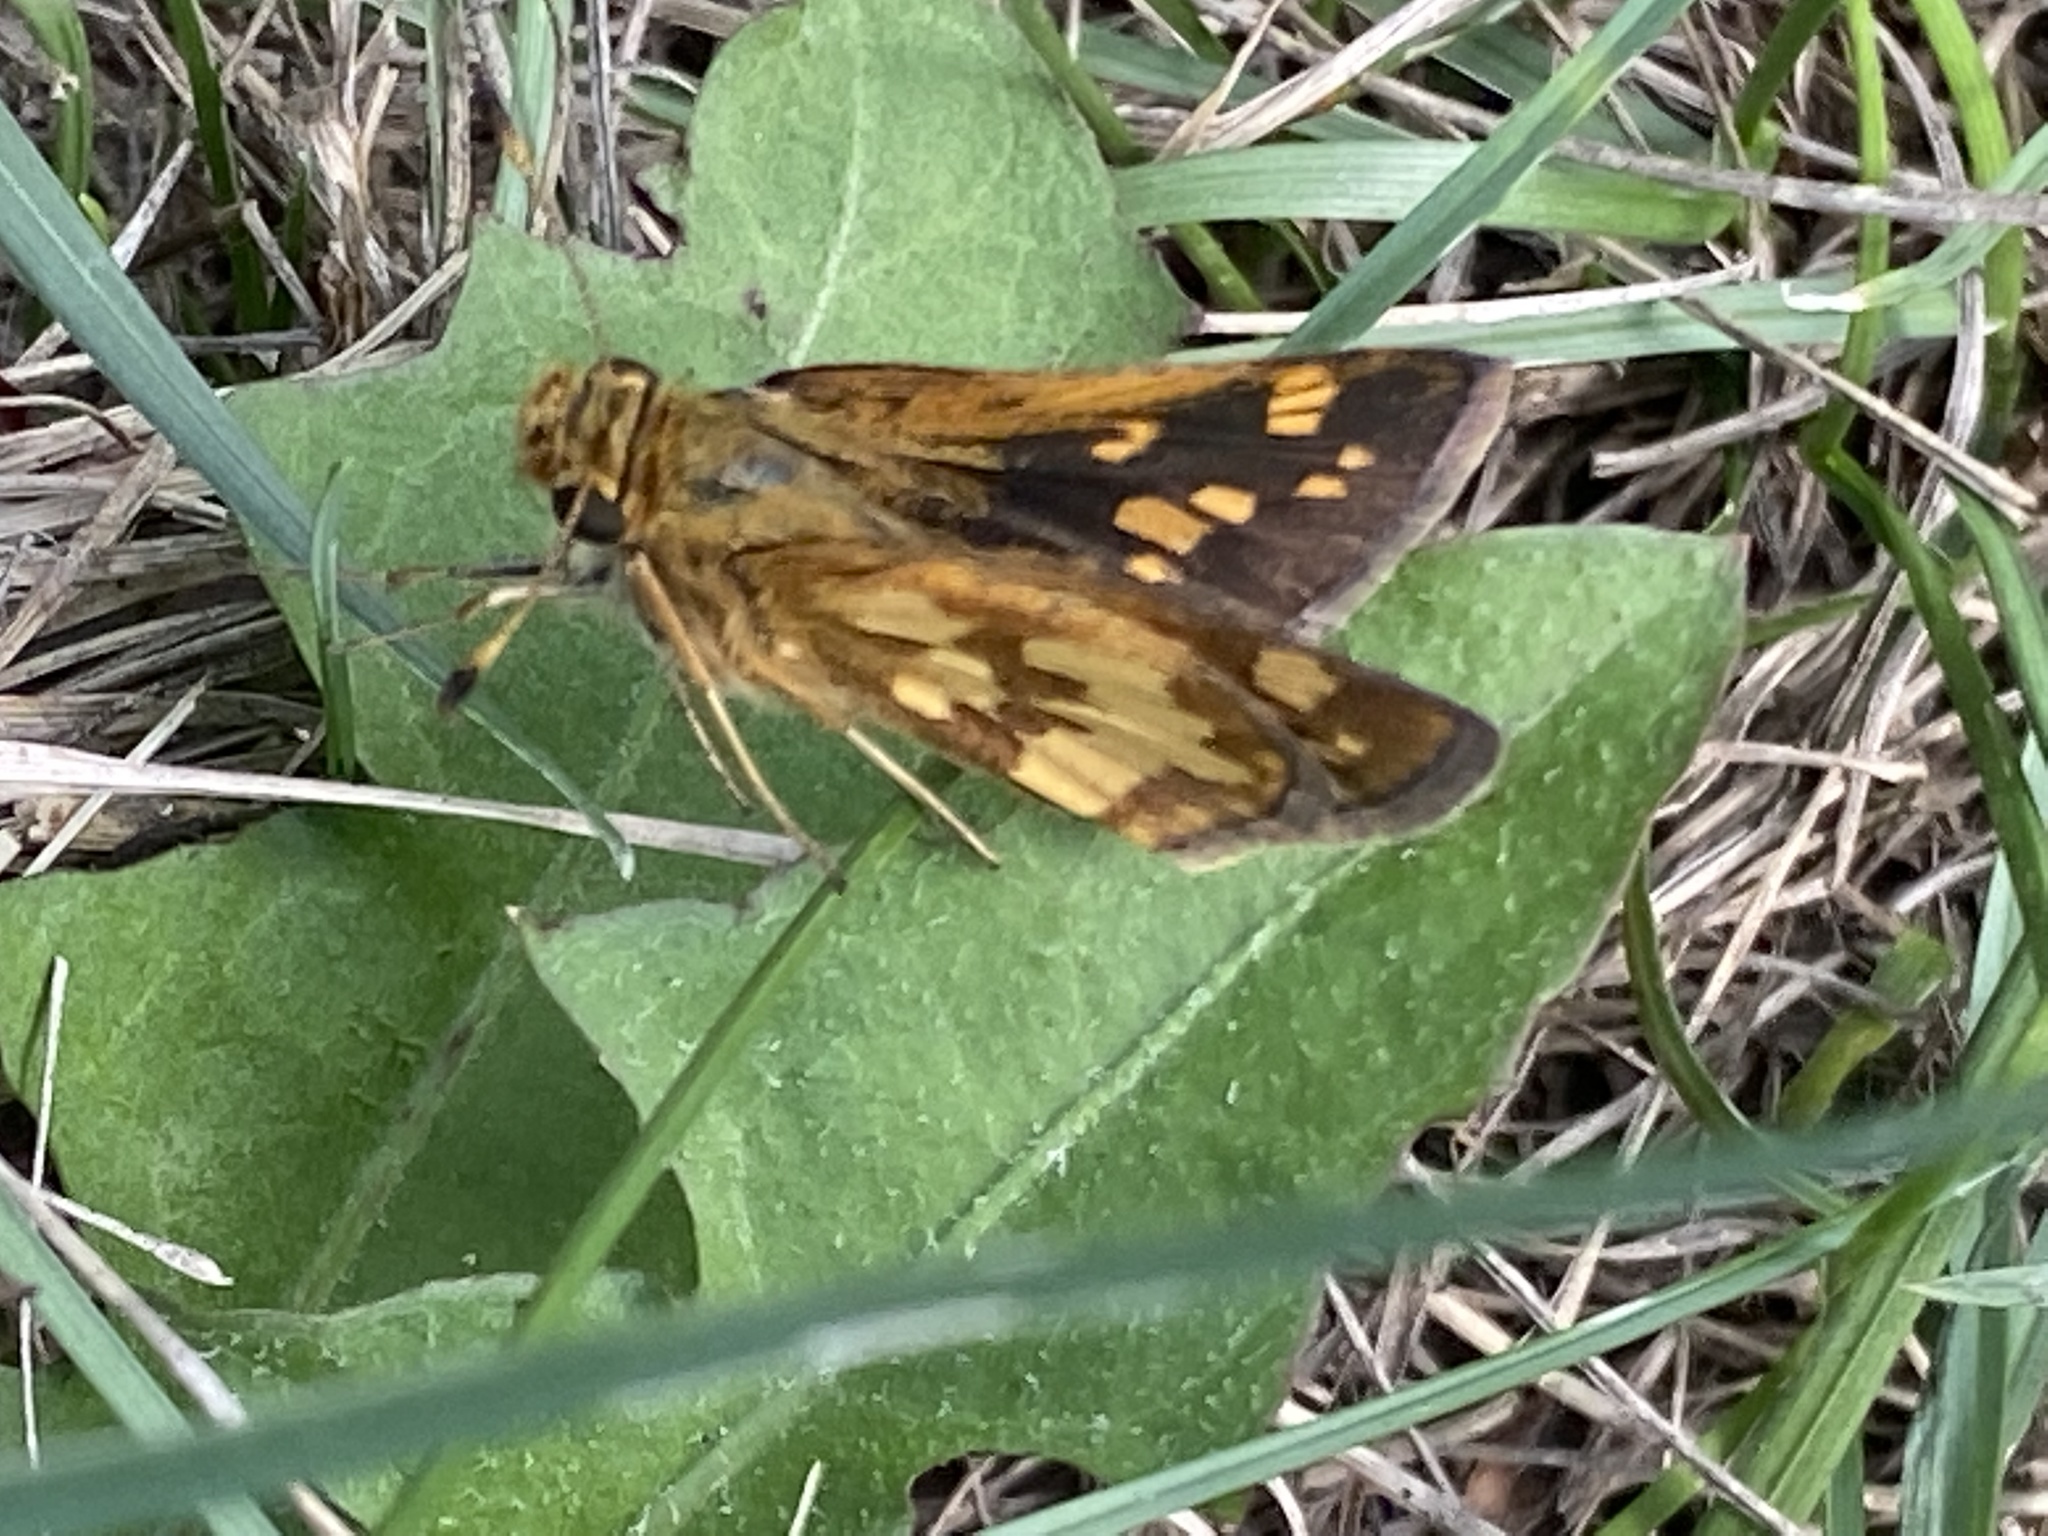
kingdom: Animalia
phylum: Arthropoda
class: Insecta
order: Lepidoptera
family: Hesperiidae
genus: Polites
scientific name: Polites coras
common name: Peck's skipper
